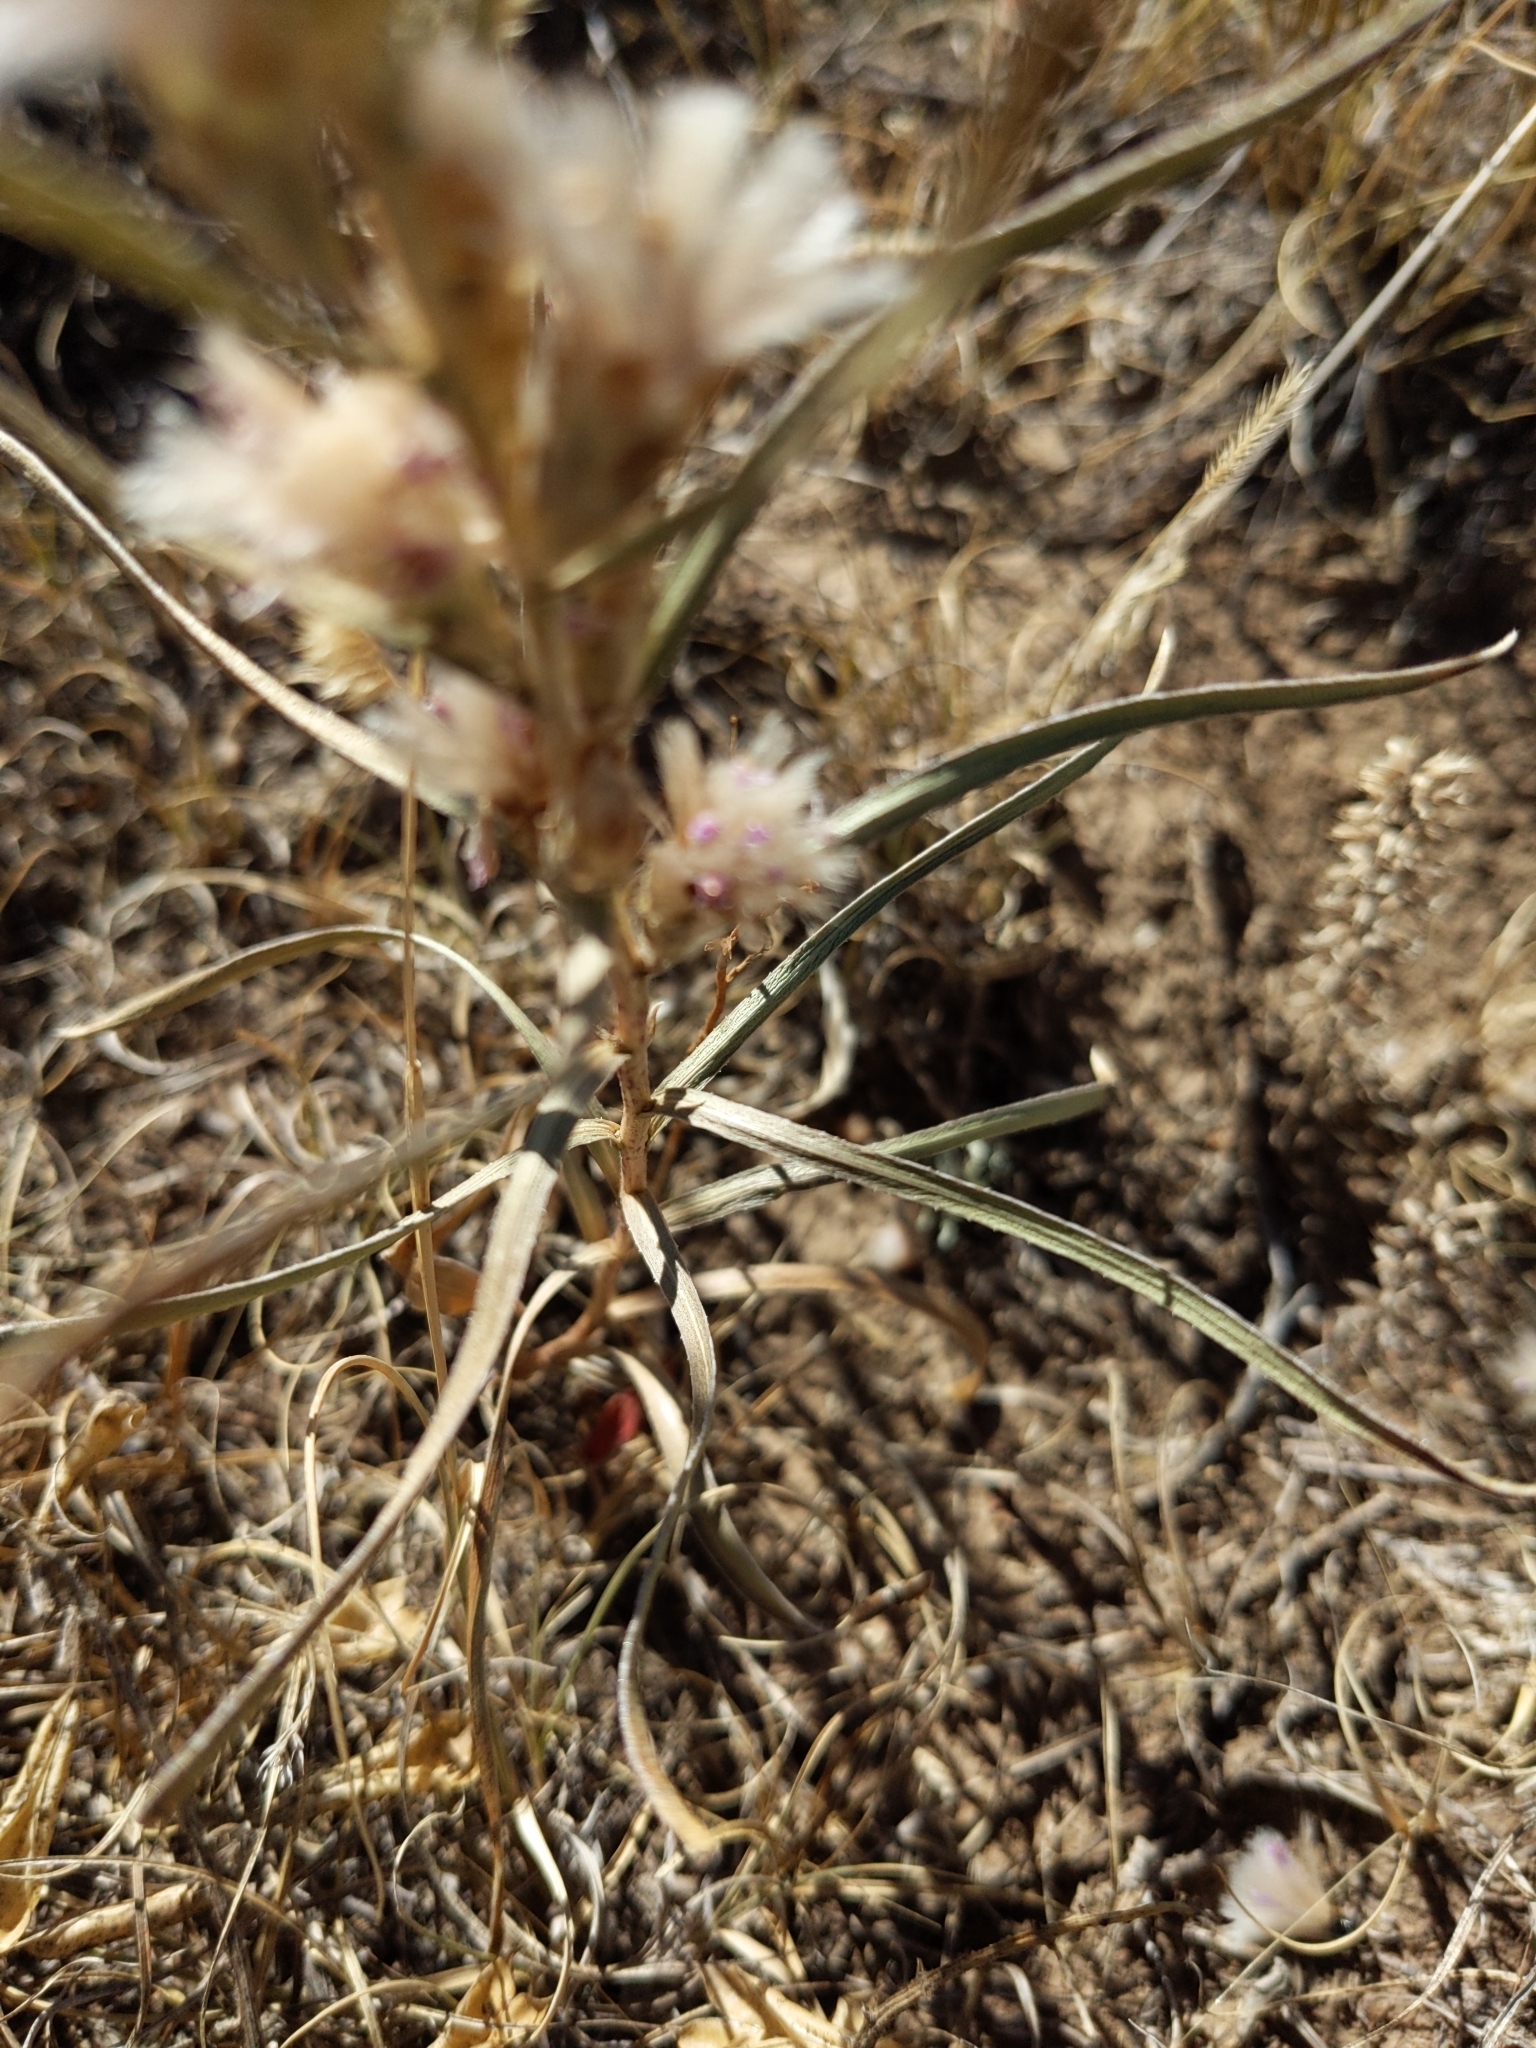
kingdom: Plantae
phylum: Tracheophyta
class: Magnoliopsida
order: Asterales
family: Asteraceae
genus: Liatris
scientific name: Liatris punctata
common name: Dotted gayfeather
